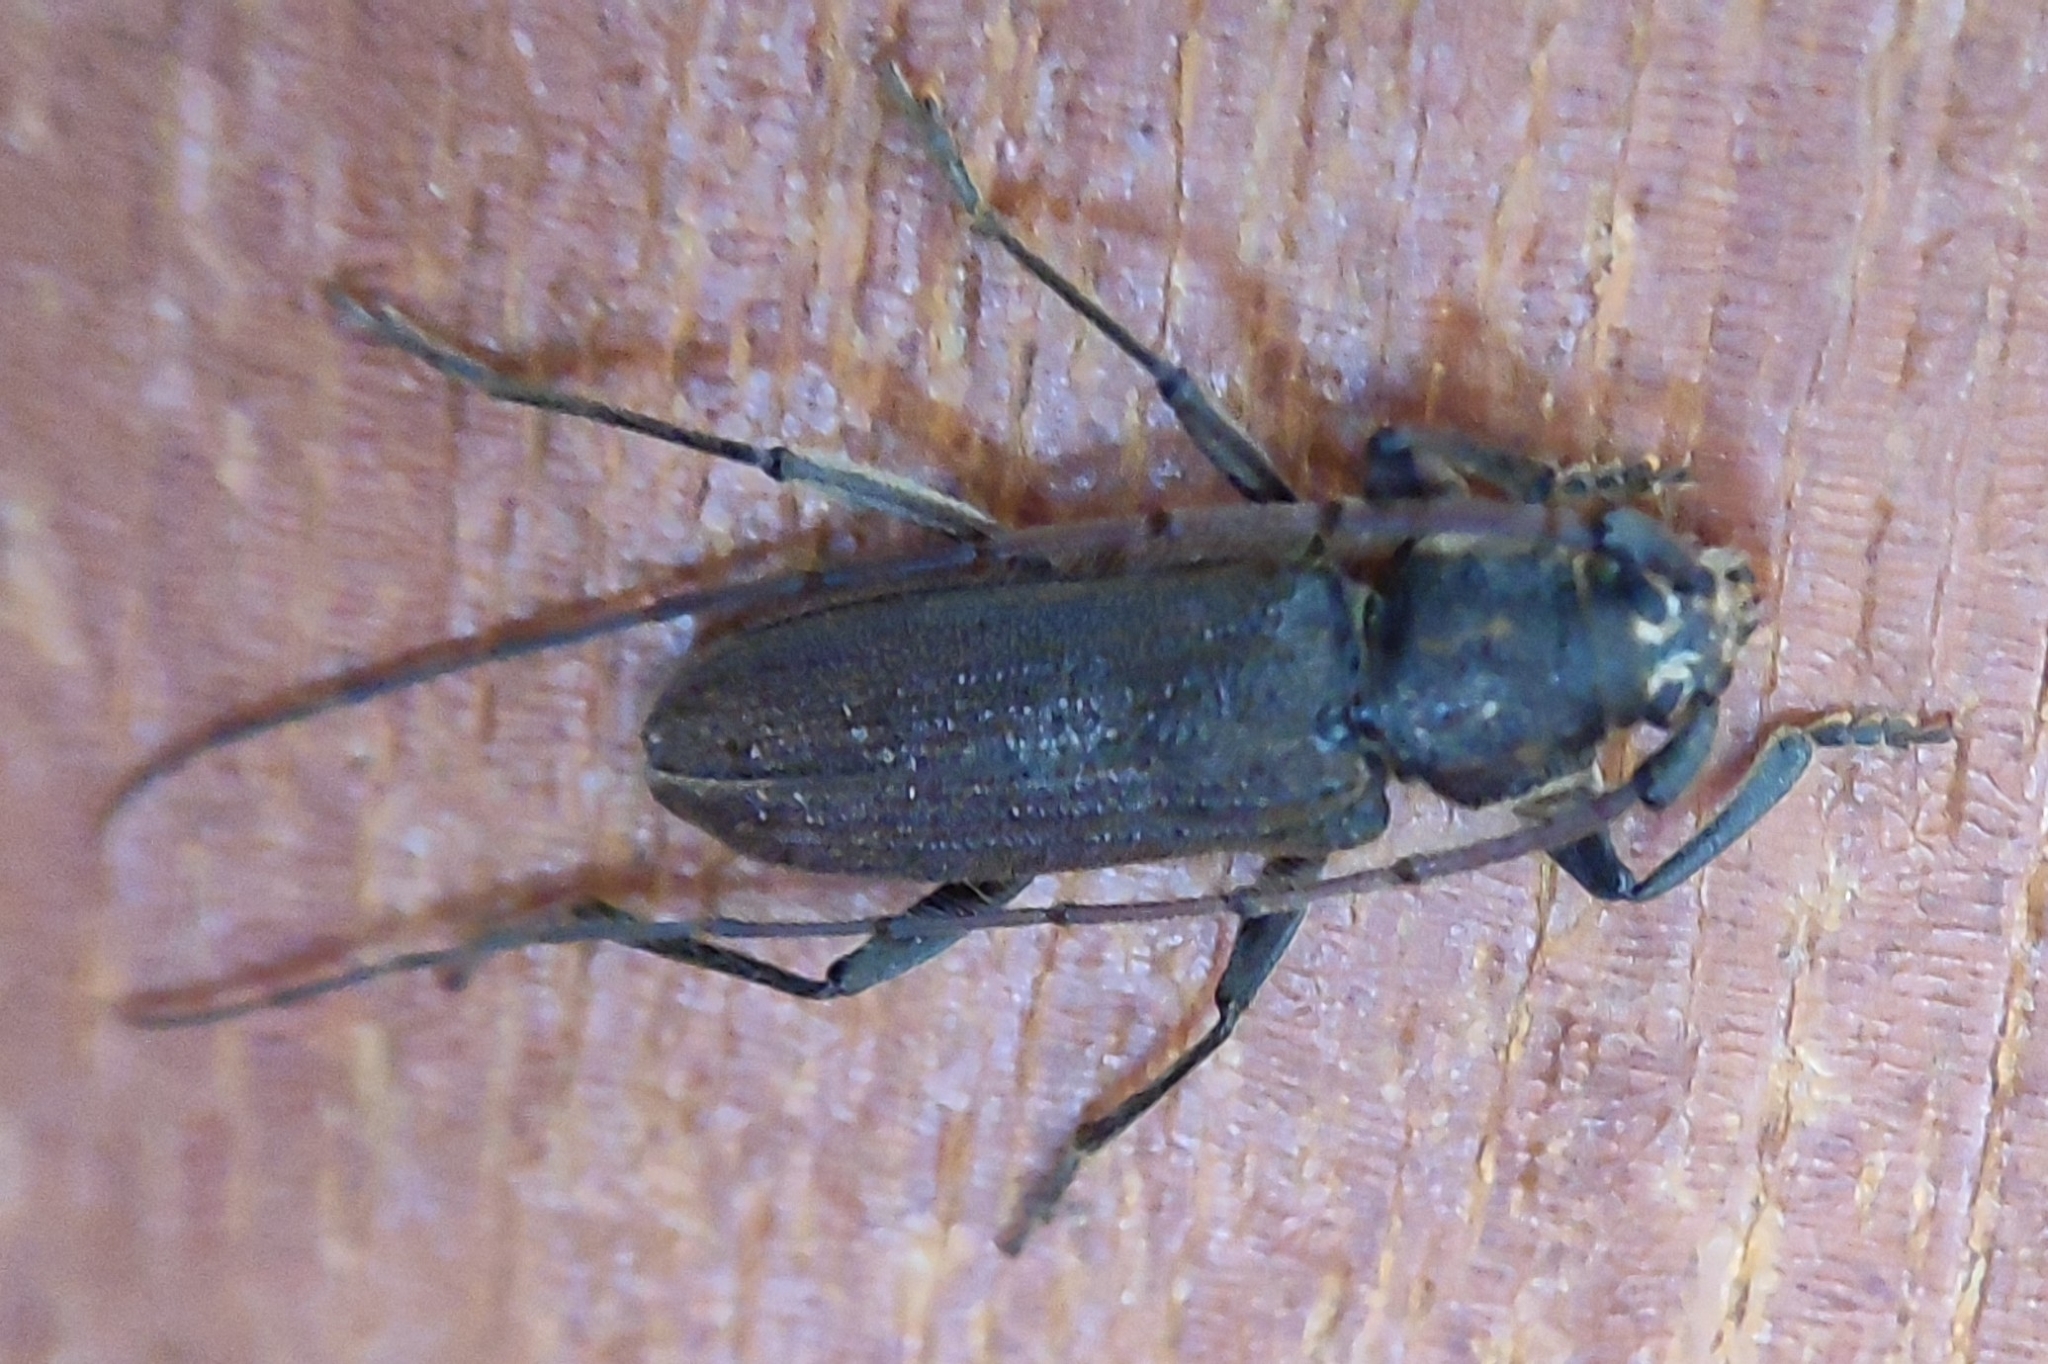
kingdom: Animalia
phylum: Arthropoda
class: Insecta
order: Coleoptera
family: Cerambycidae
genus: Stromatium
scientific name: Stromatium barbatum
